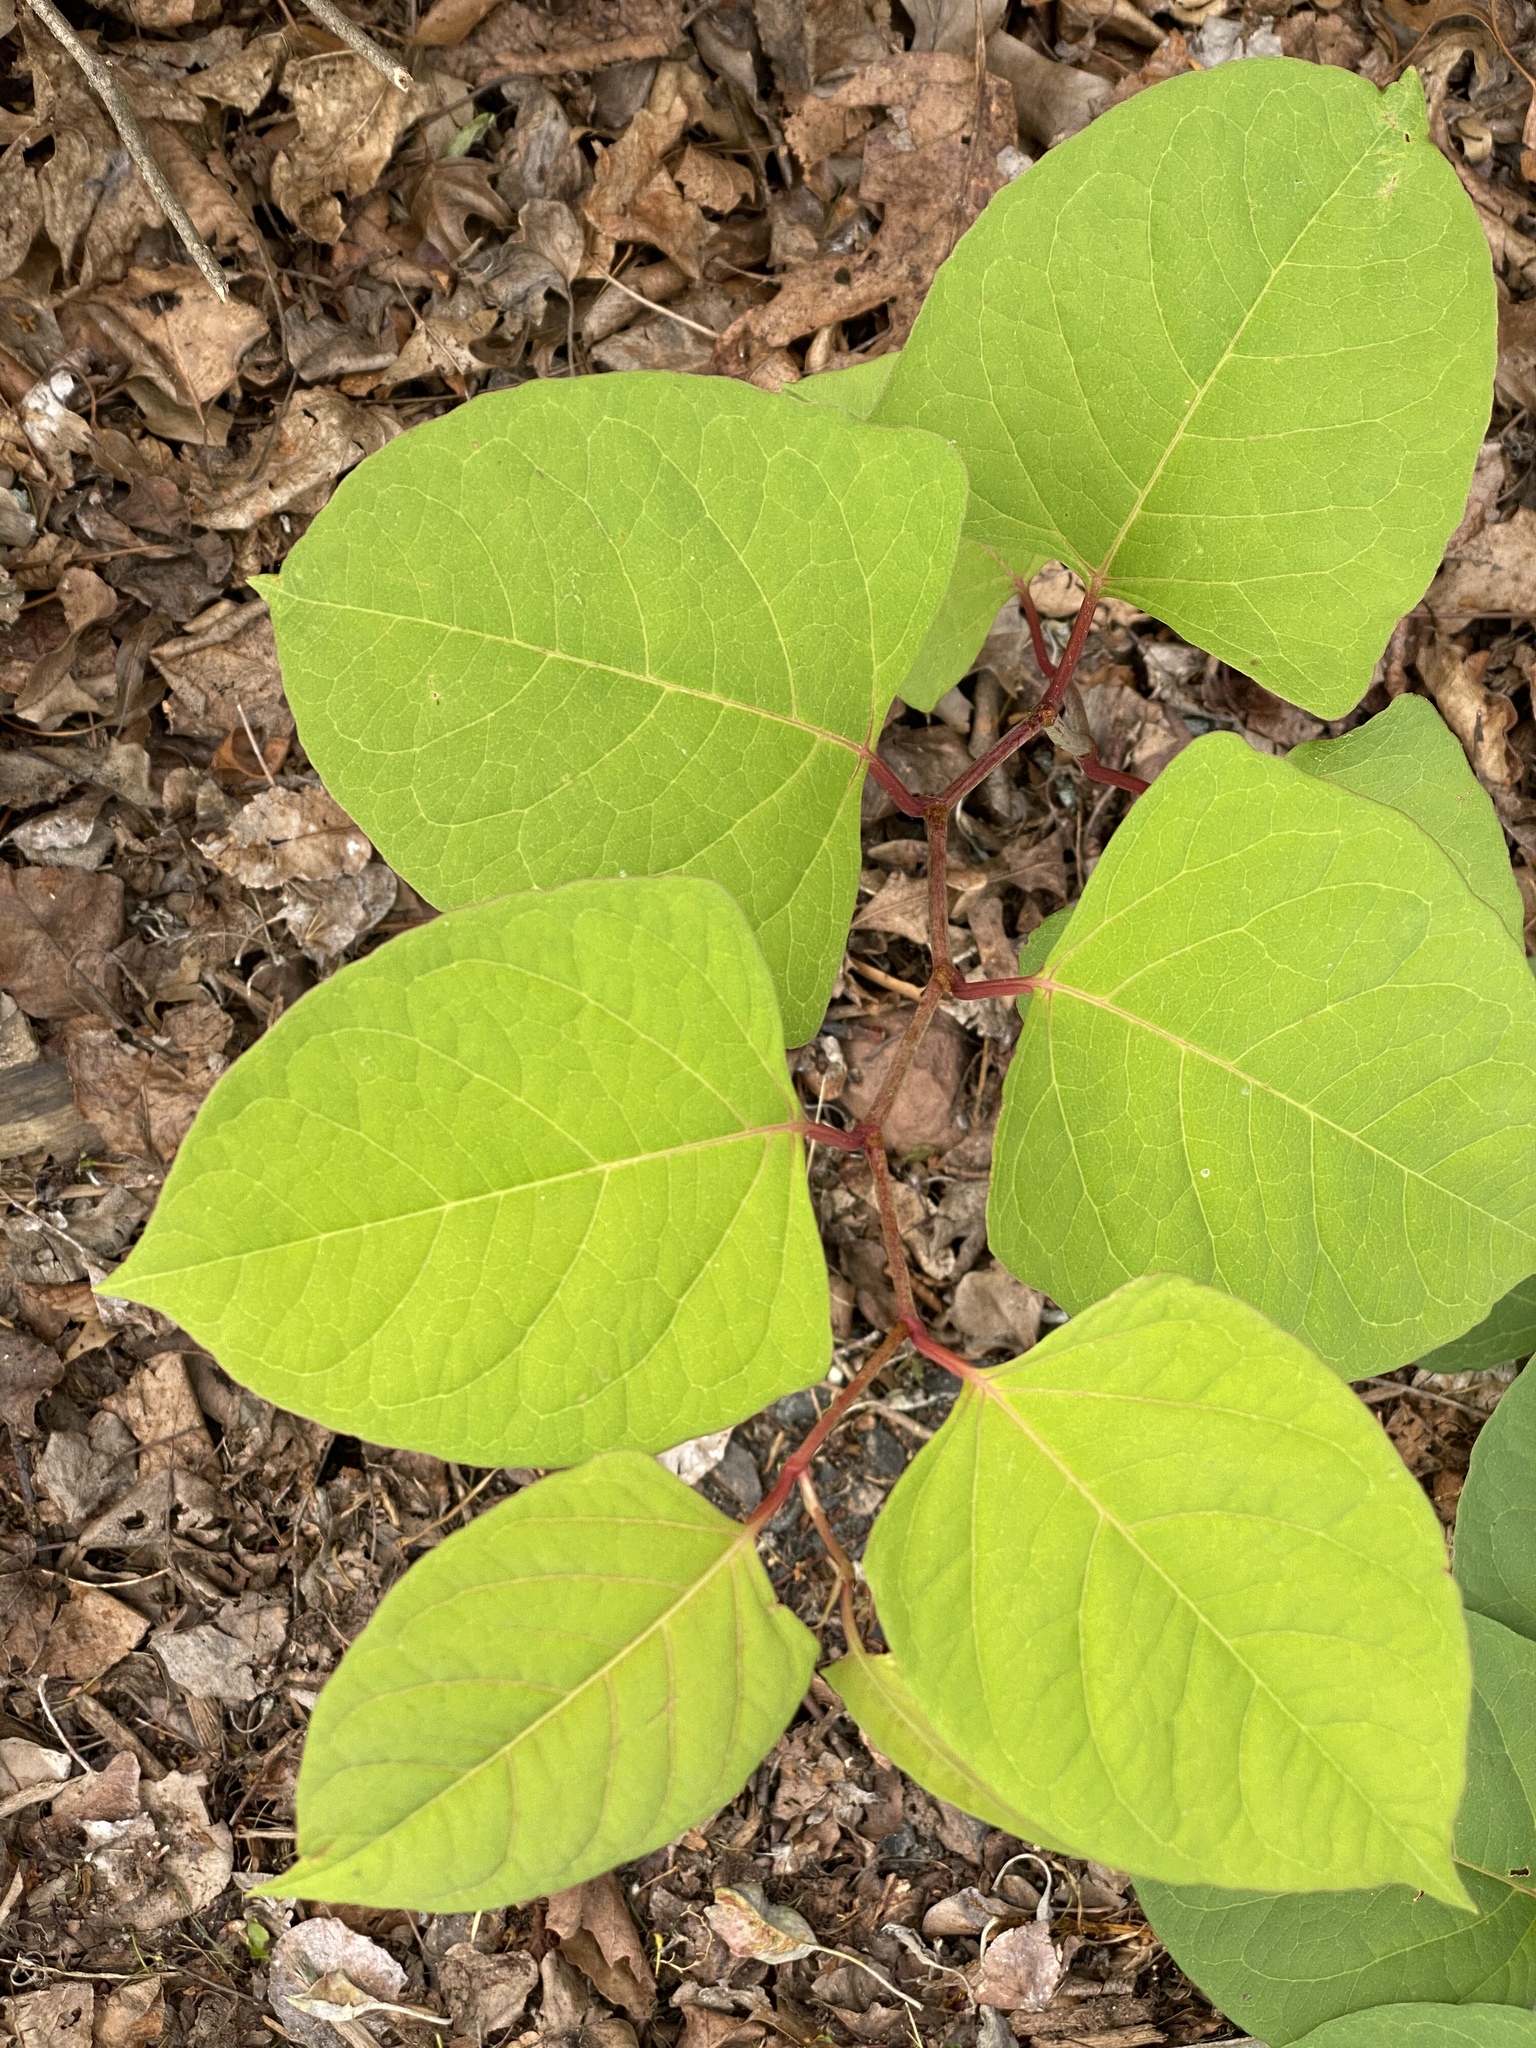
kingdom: Plantae
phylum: Tracheophyta
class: Magnoliopsida
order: Caryophyllales
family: Polygonaceae
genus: Reynoutria
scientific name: Reynoutria japonica
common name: Japanese knotweed
